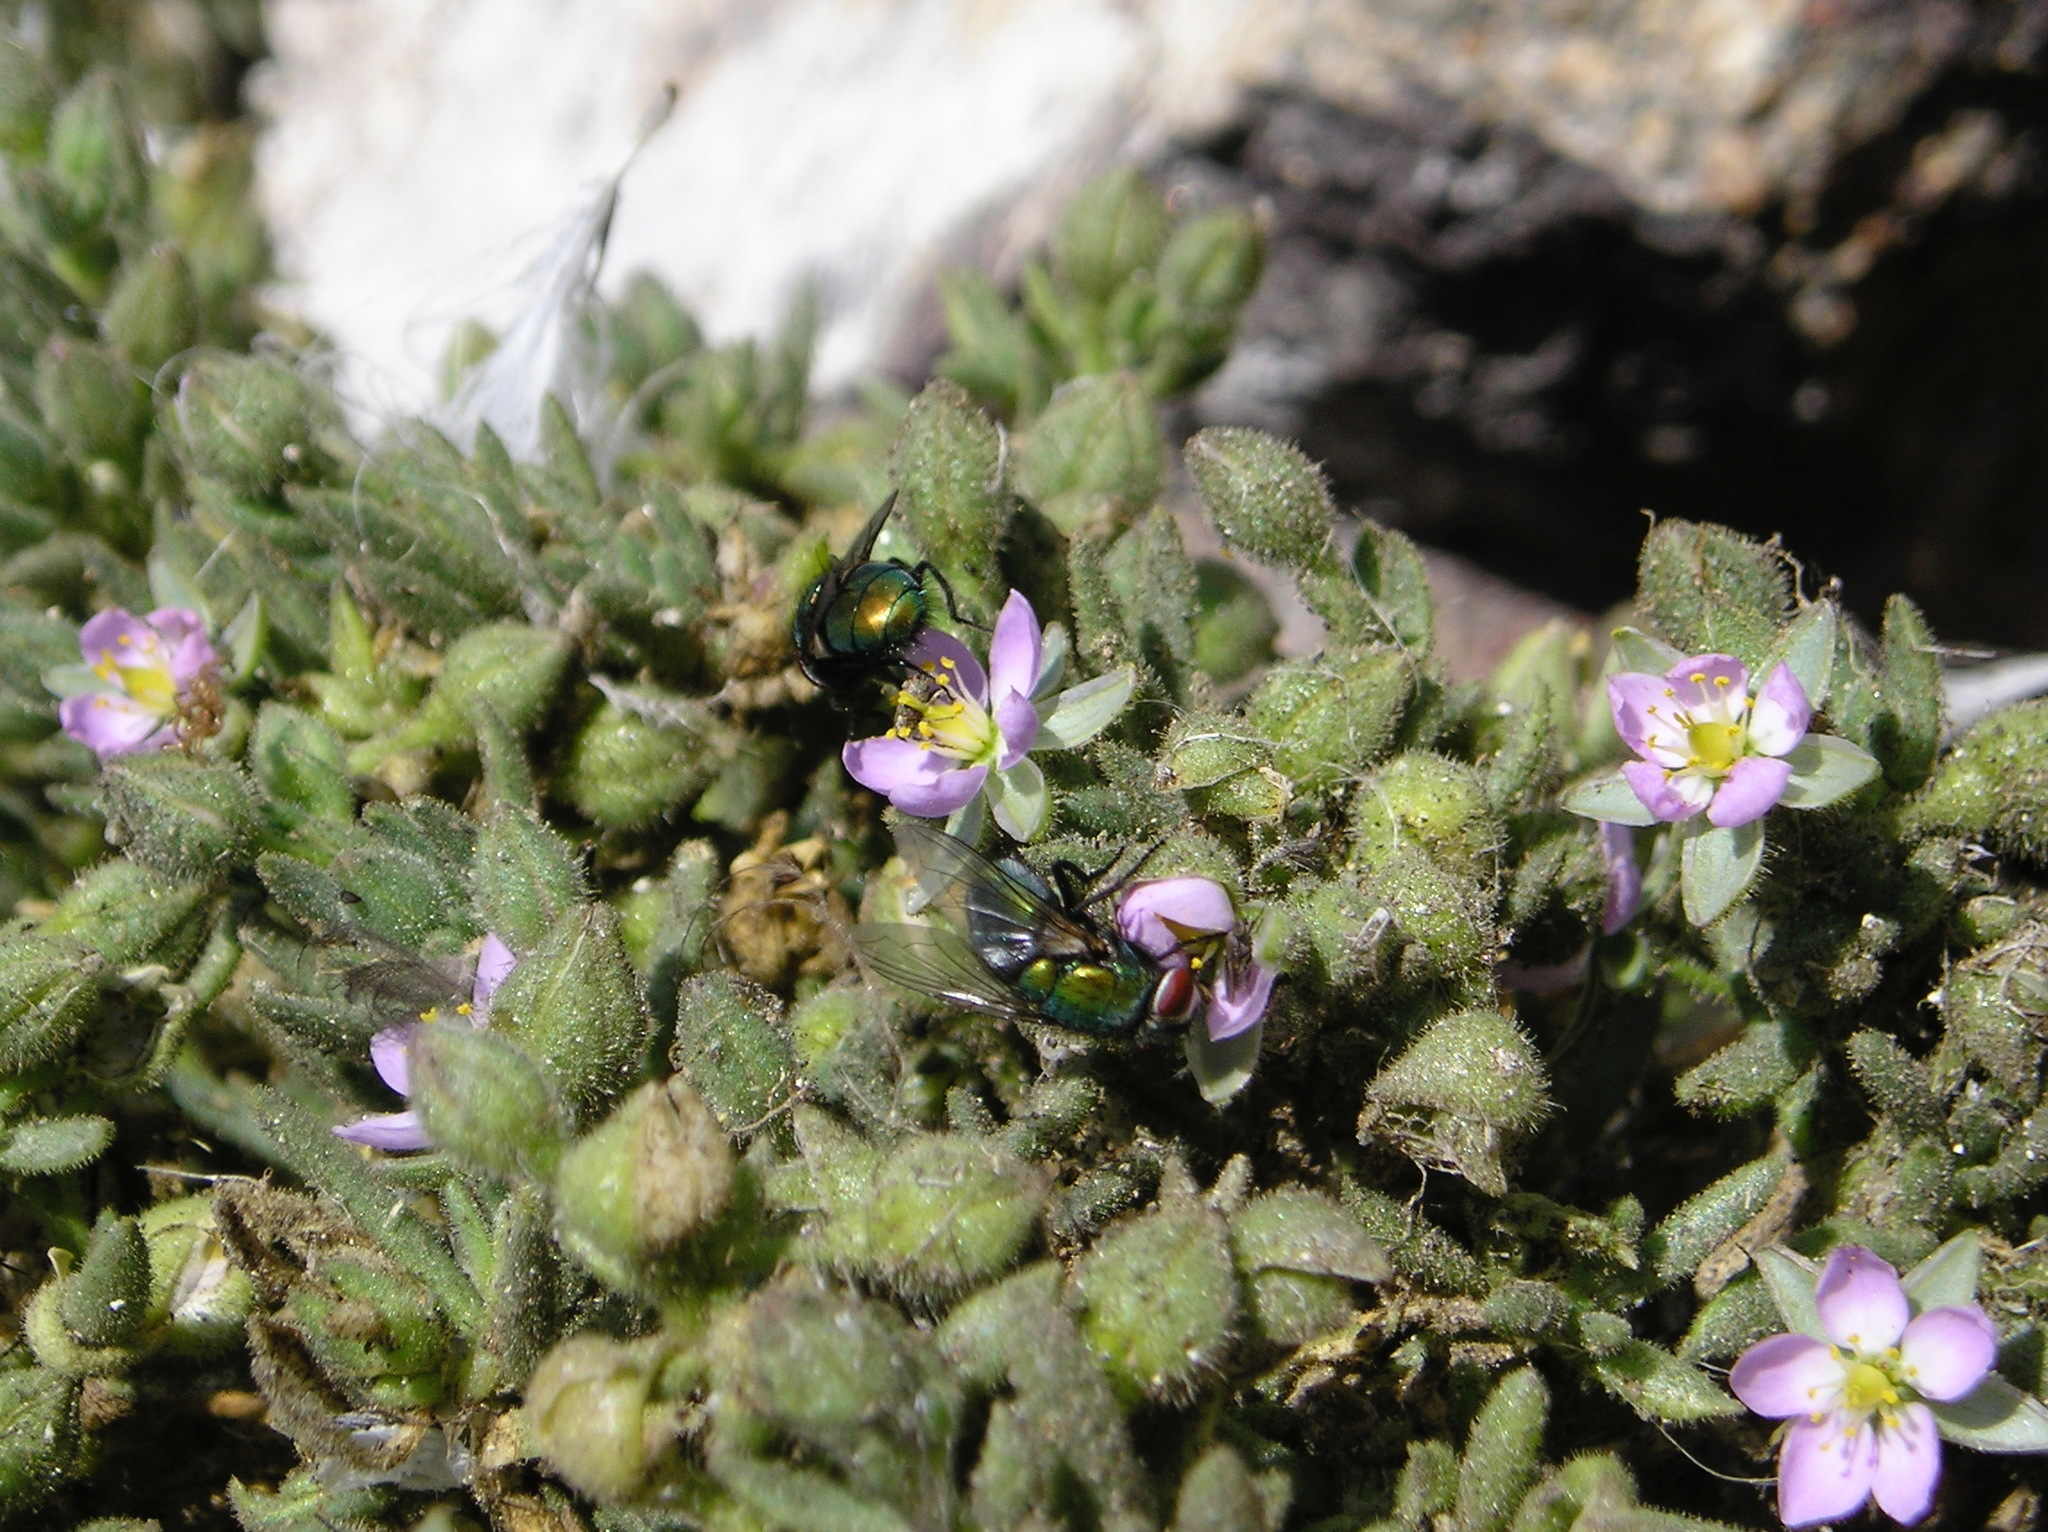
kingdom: Plantae
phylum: Tracheophyta
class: Magnoliopsida
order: Caryophyllales
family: Caryophyllaceae
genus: Spergularia
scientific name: Spergularia macrotheca
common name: Beach sand-spurrey
